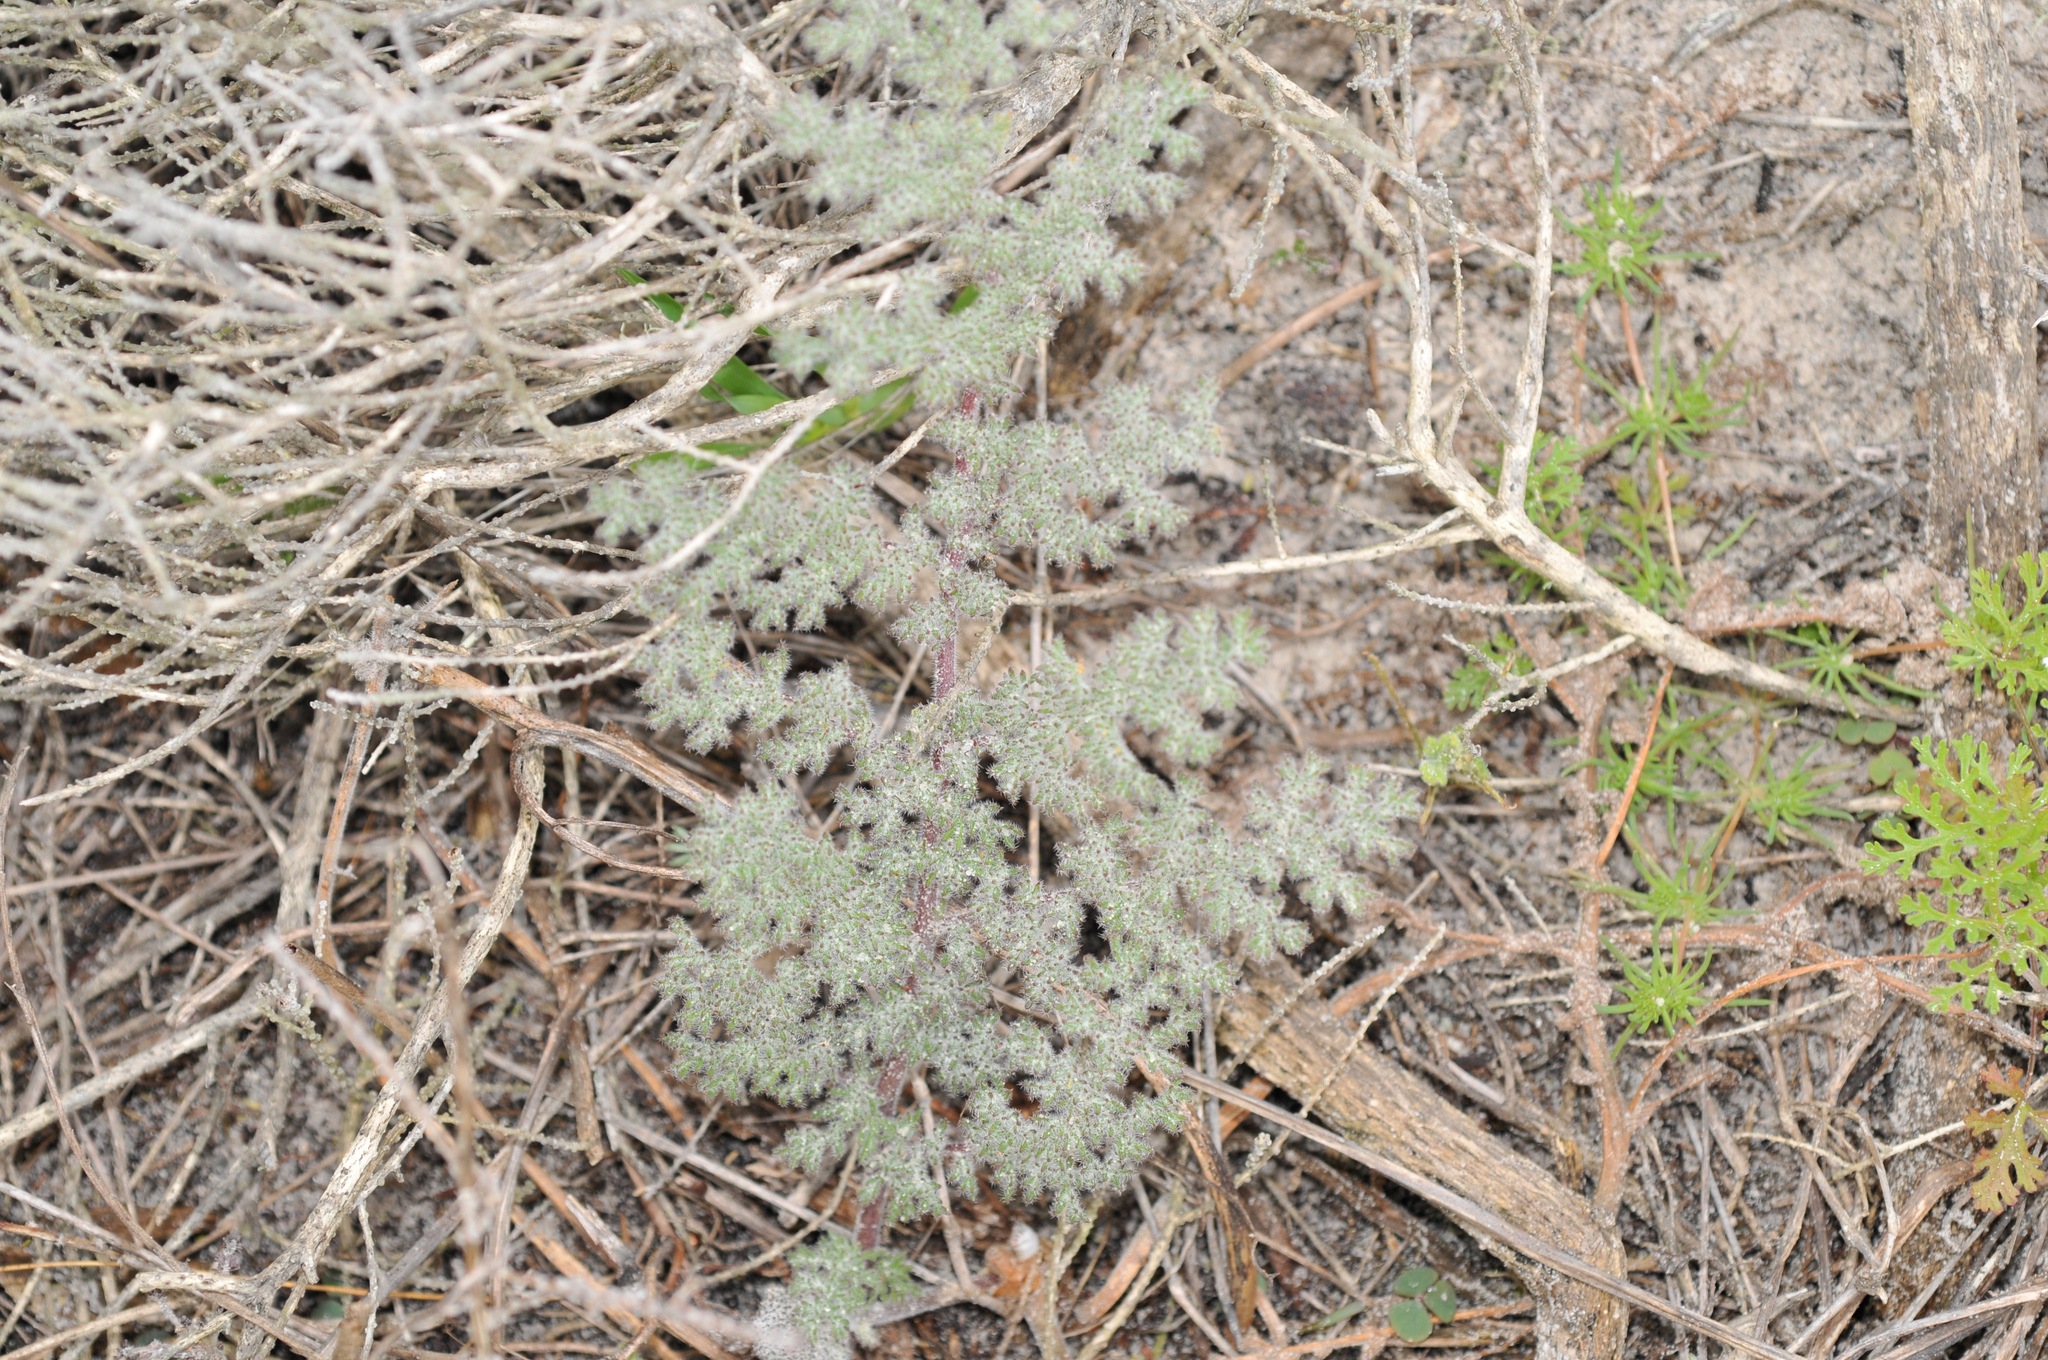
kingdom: Plantae
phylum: Tracheophyta
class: Magnoliopsida
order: Geraniales
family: Geraniaceae
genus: Pelargonium
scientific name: Pelargonium triste
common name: Night-scent pelargonium
